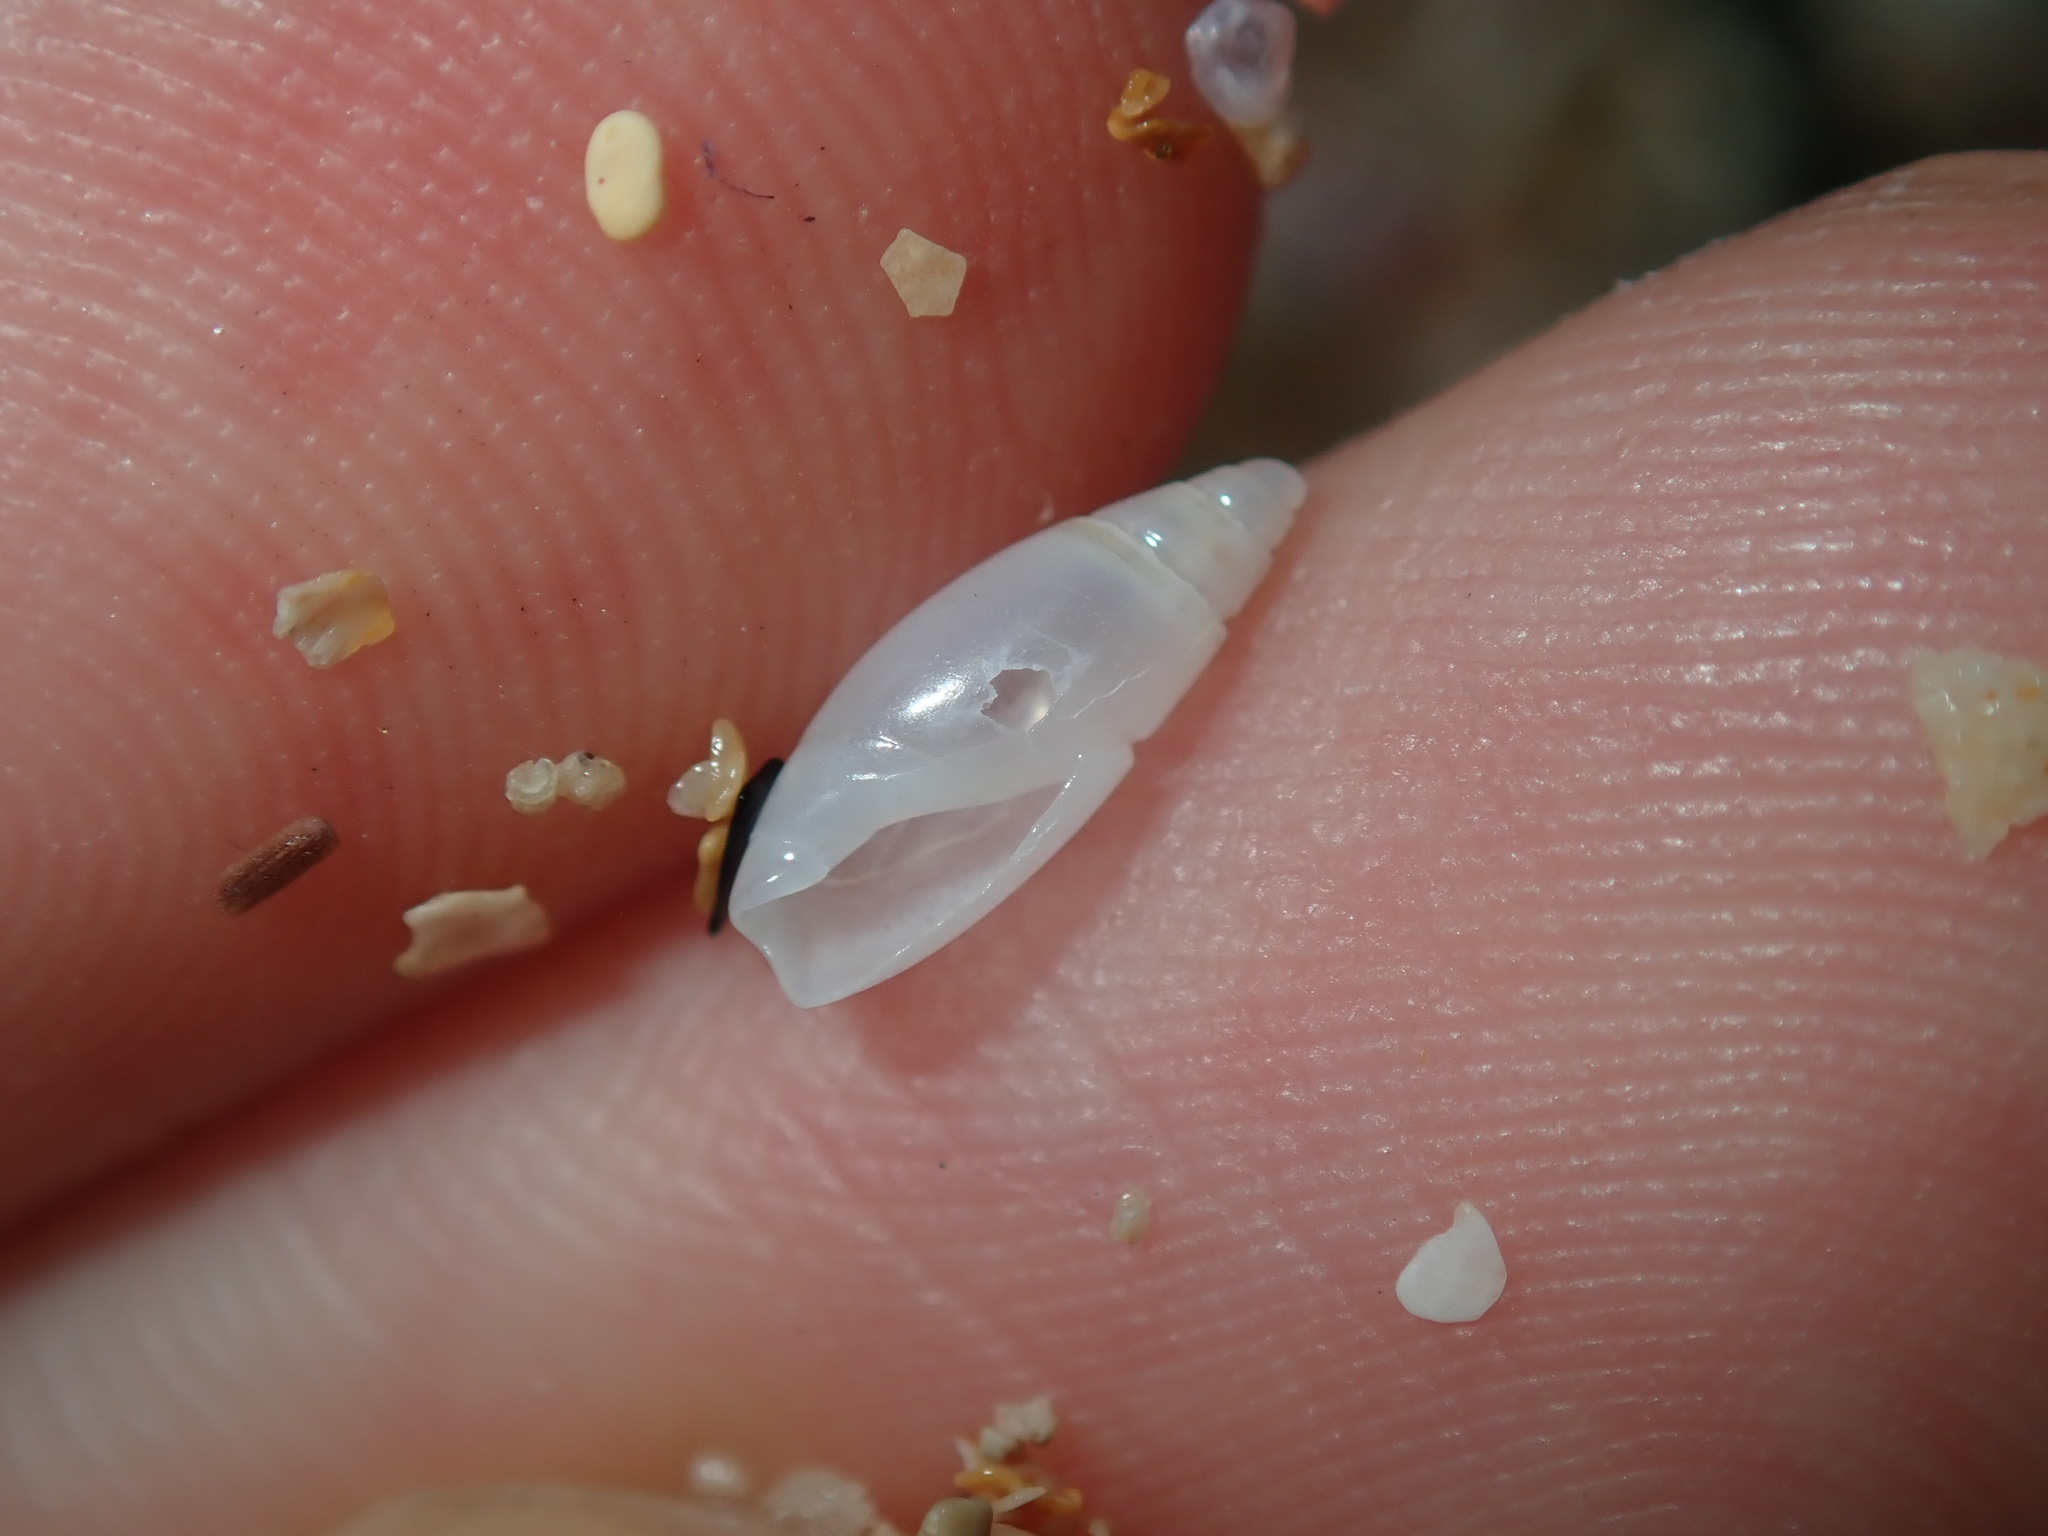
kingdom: Animalia
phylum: Mollusca
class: Gastropoda
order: Neogastropoda
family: Olividae
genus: Cupidoliva
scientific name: Cupidoliva nympha
